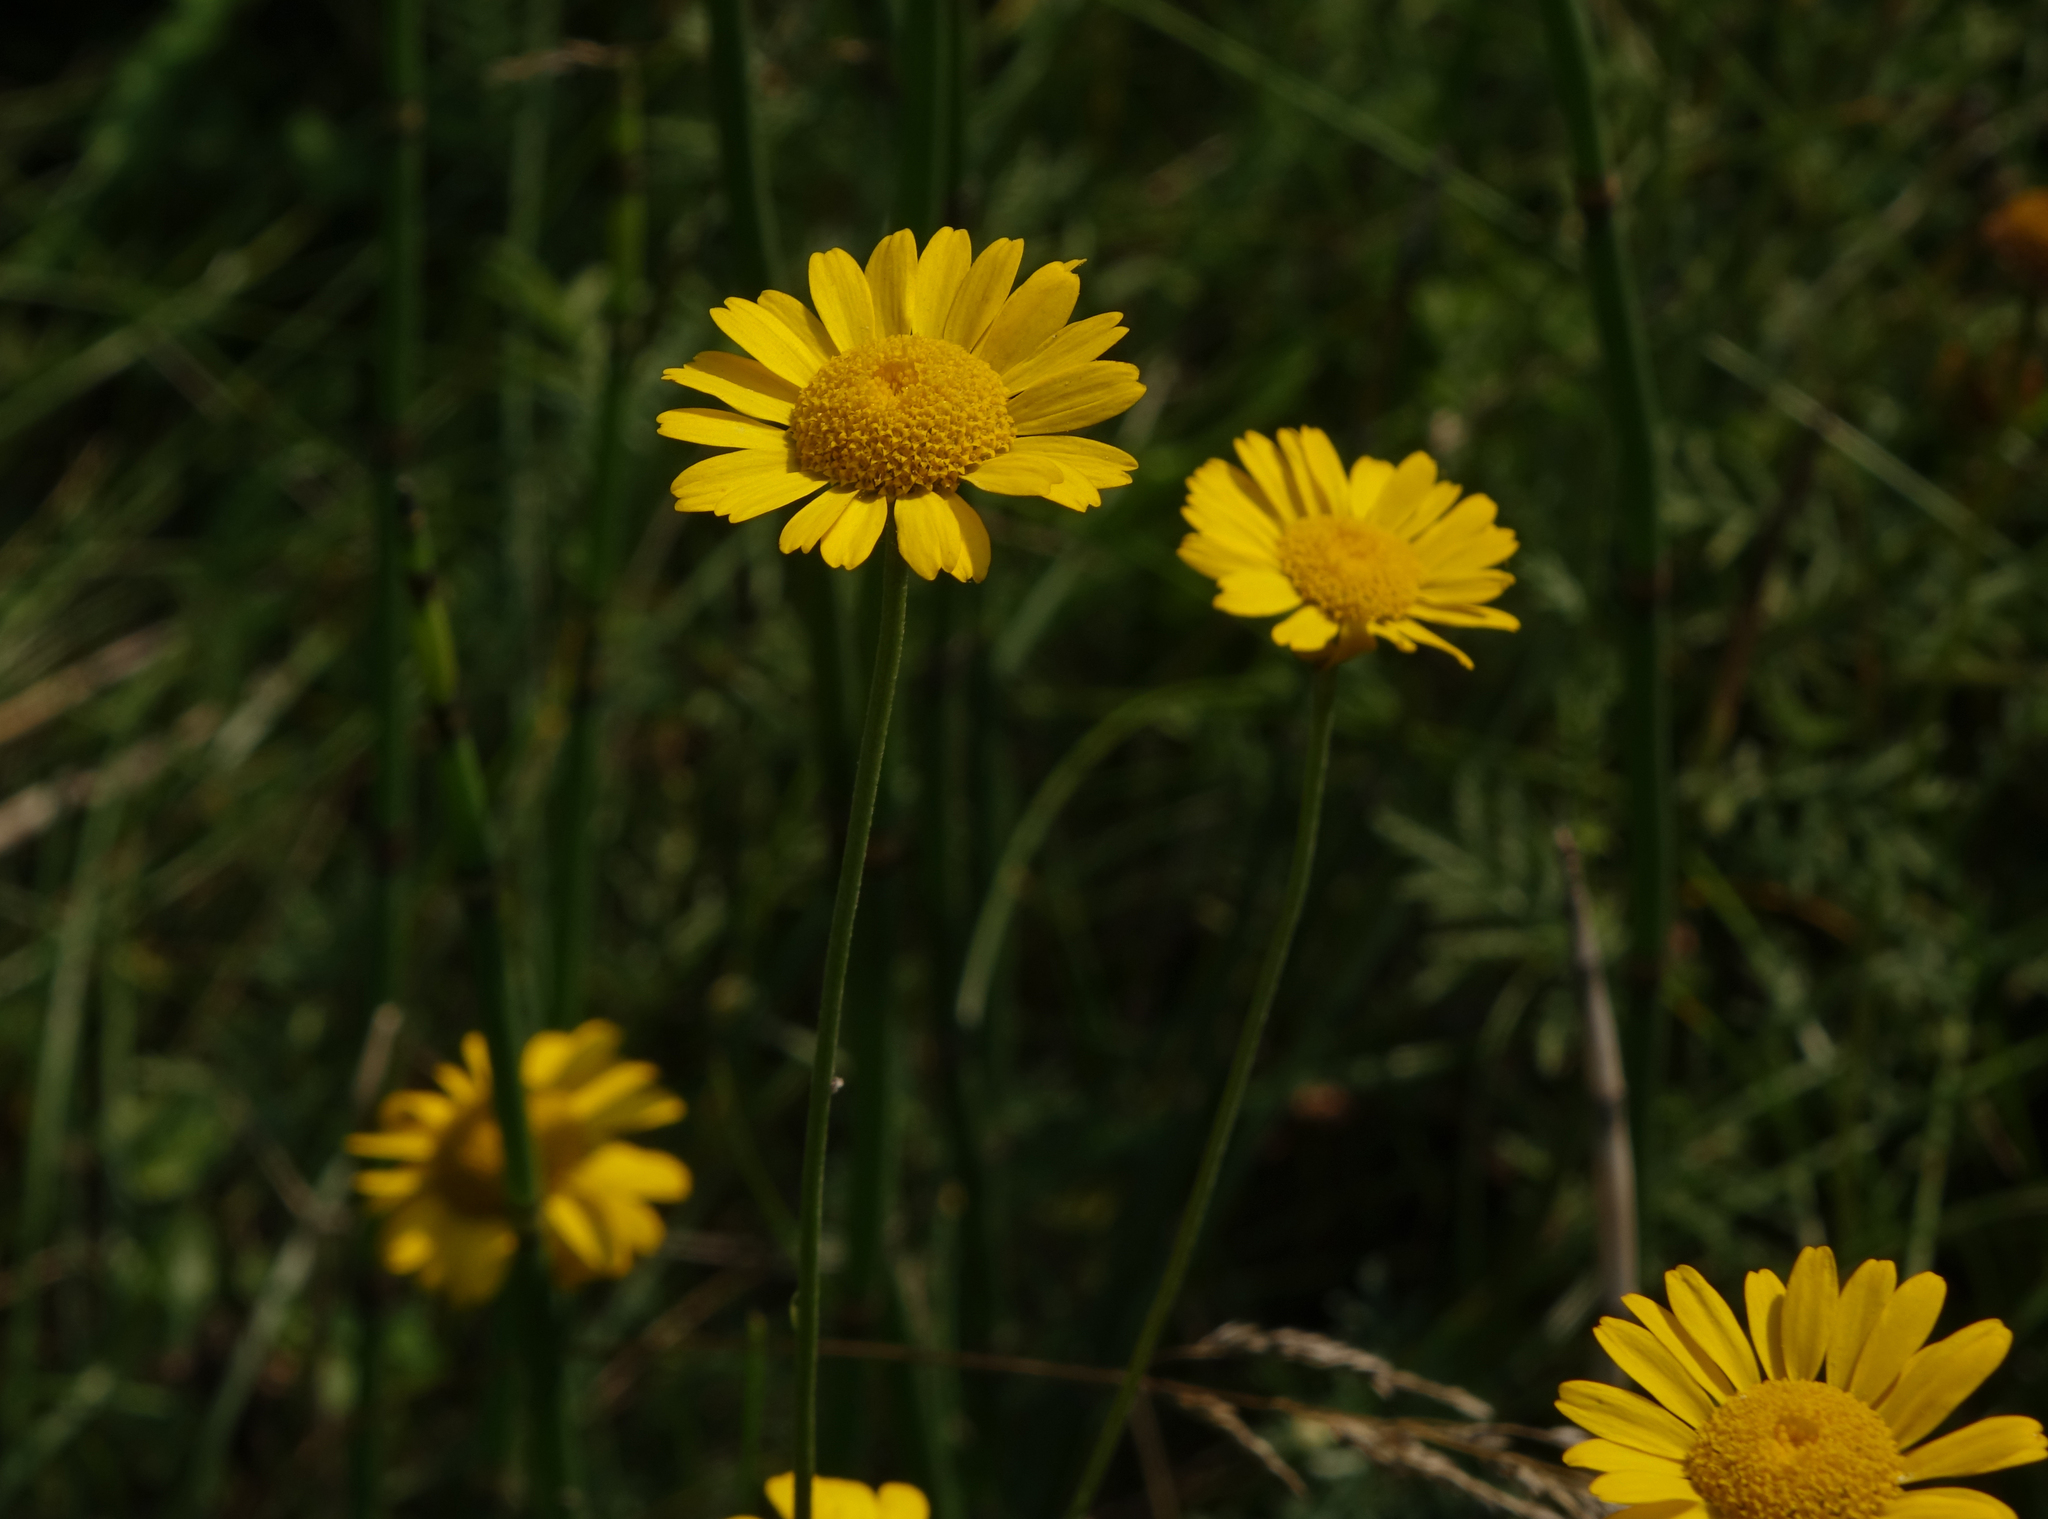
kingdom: Plantae
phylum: Tracheophyta
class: Magnoliopsida
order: Asterales
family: Asteraceae
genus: Cota
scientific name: Cota tinctoria
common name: Golden chamomile
